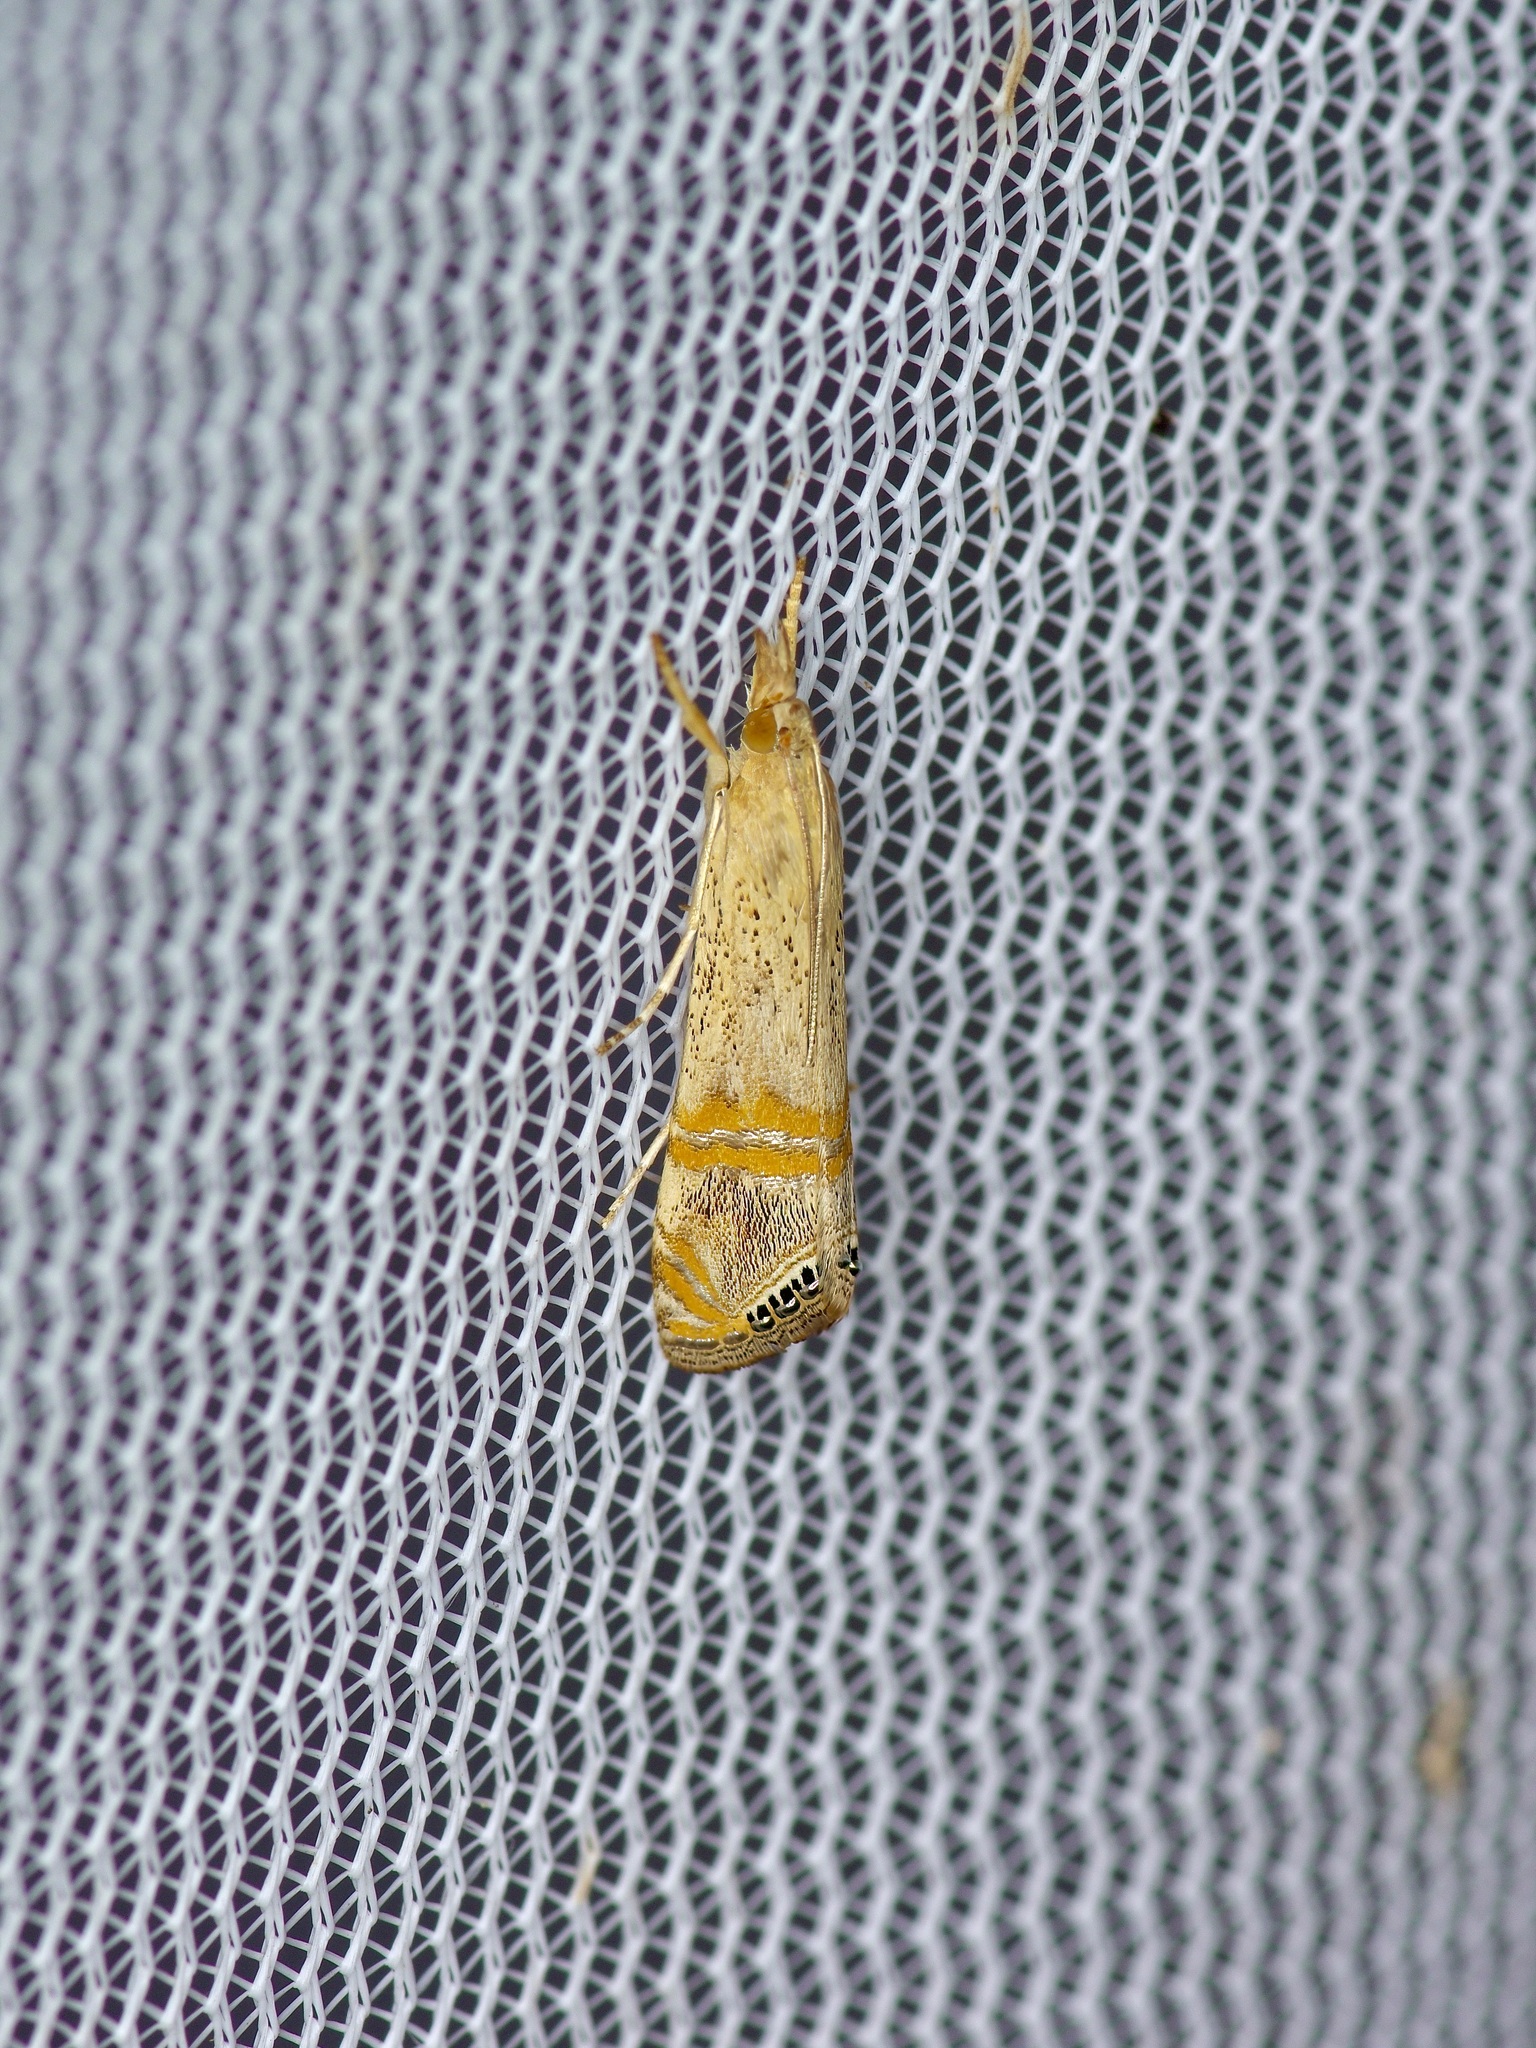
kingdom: Animalia
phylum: Arthropoda
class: Insecta
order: Lepidoptera
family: Crambidae
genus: Euchromius
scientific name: Euchromius ocellea
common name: Necklace veneer moth
